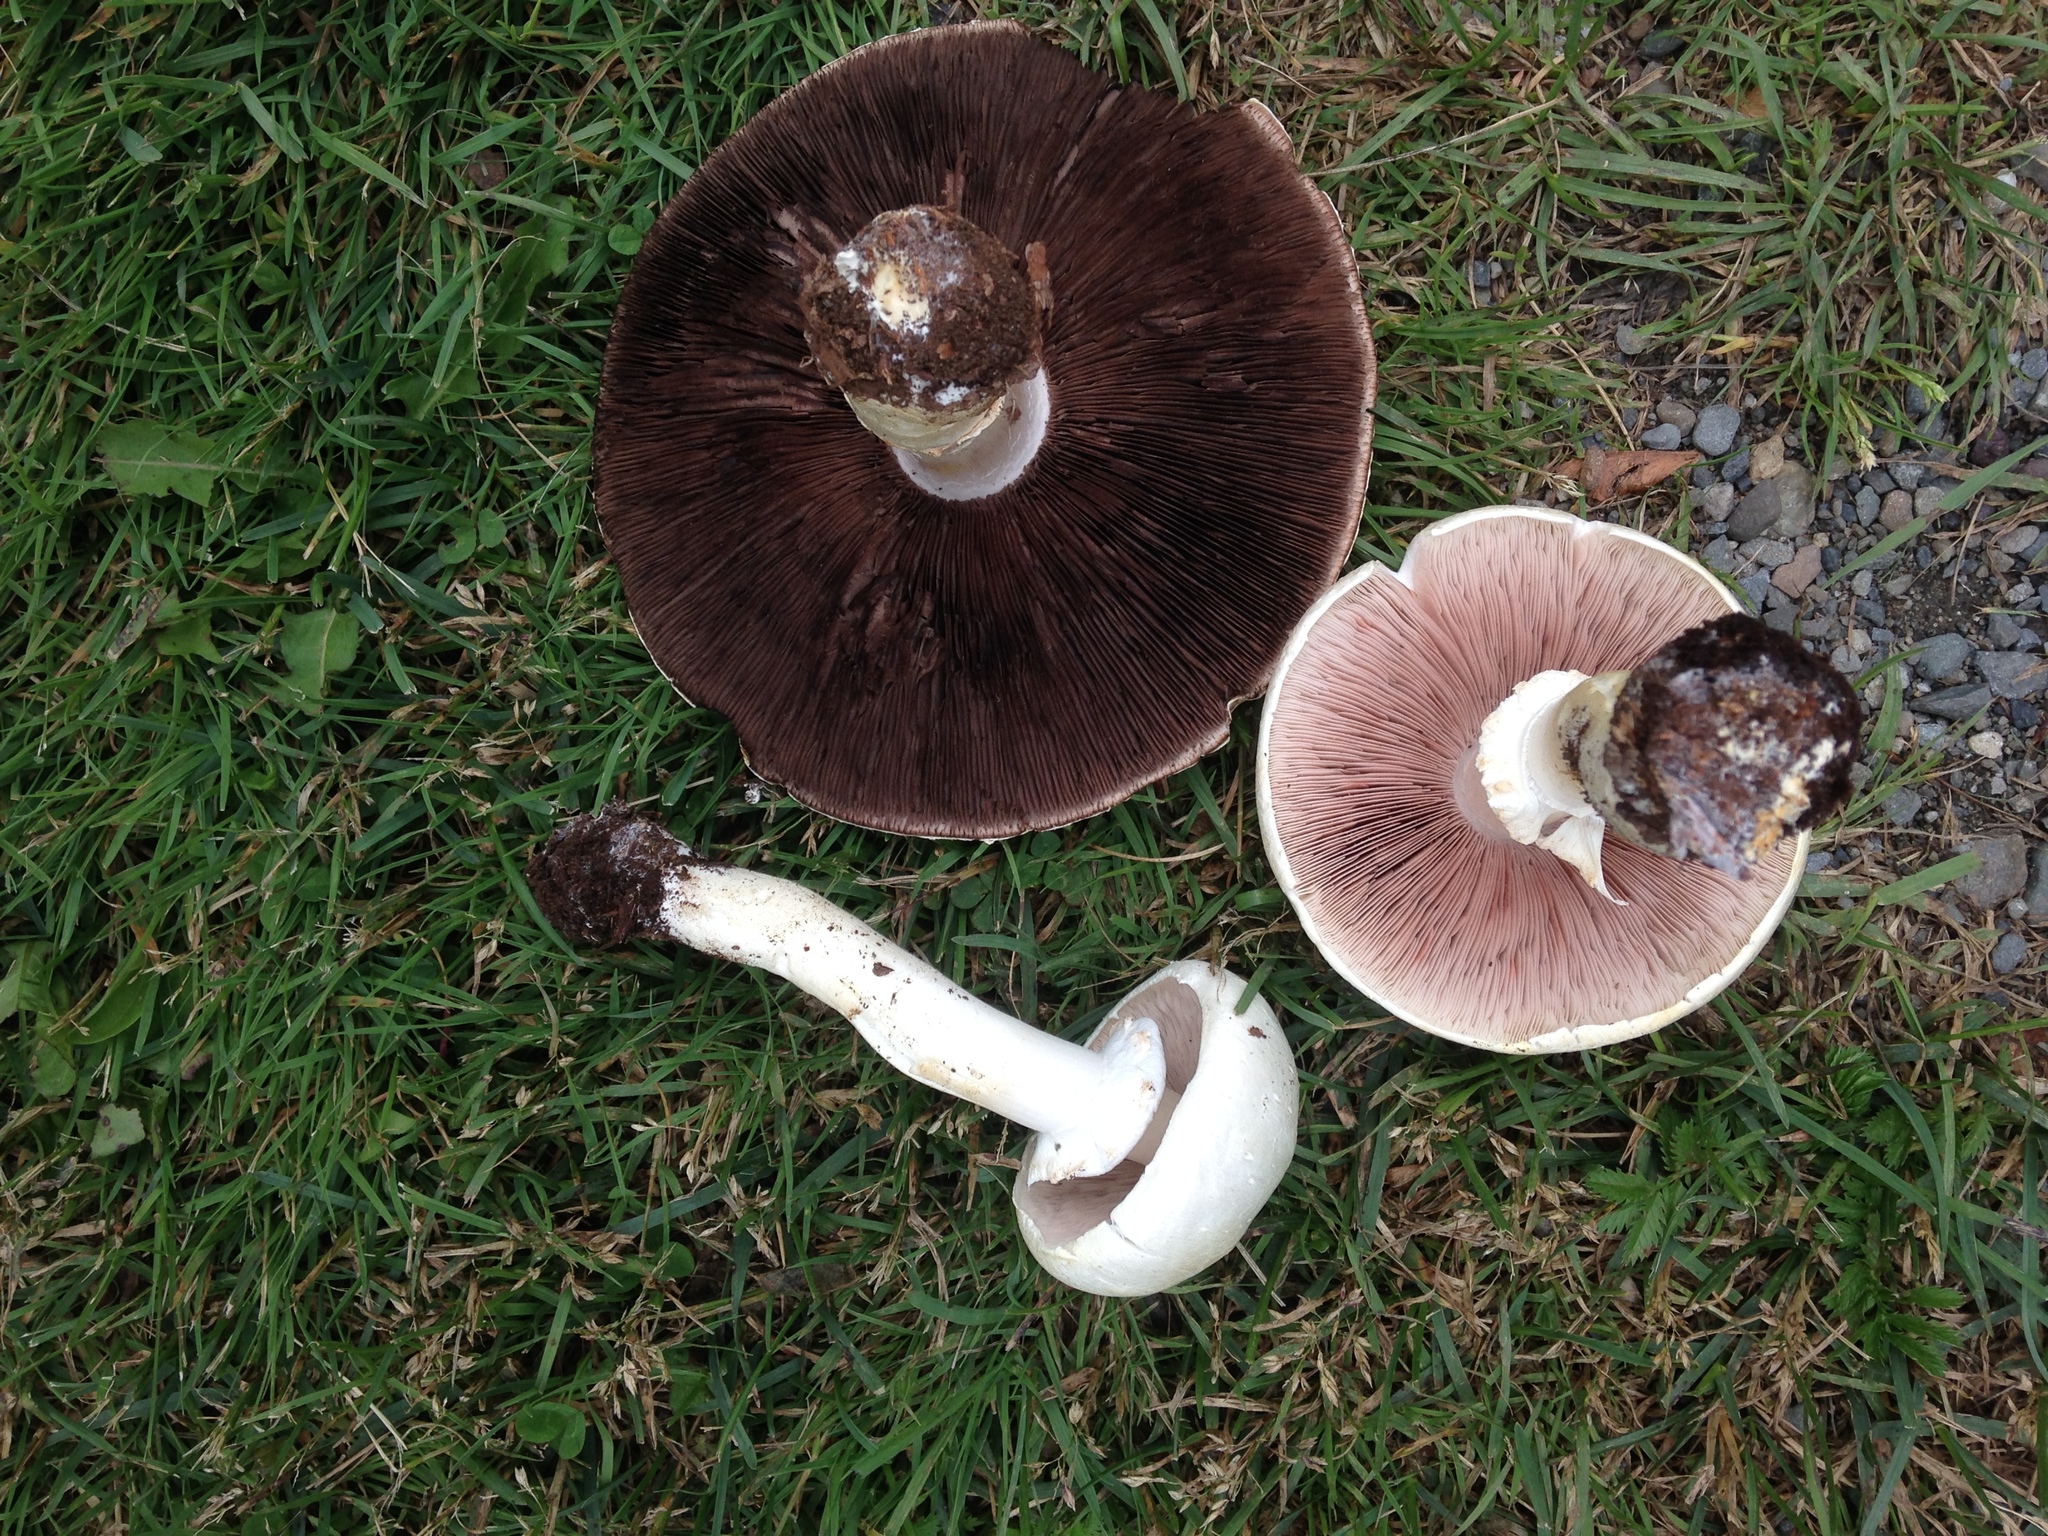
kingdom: Fungi
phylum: Basidiomycota
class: Agaricomycetes
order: Agaricales
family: Agaricaceae
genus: Agaricus
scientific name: Agaricus sylvicola
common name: Wood mushroom
